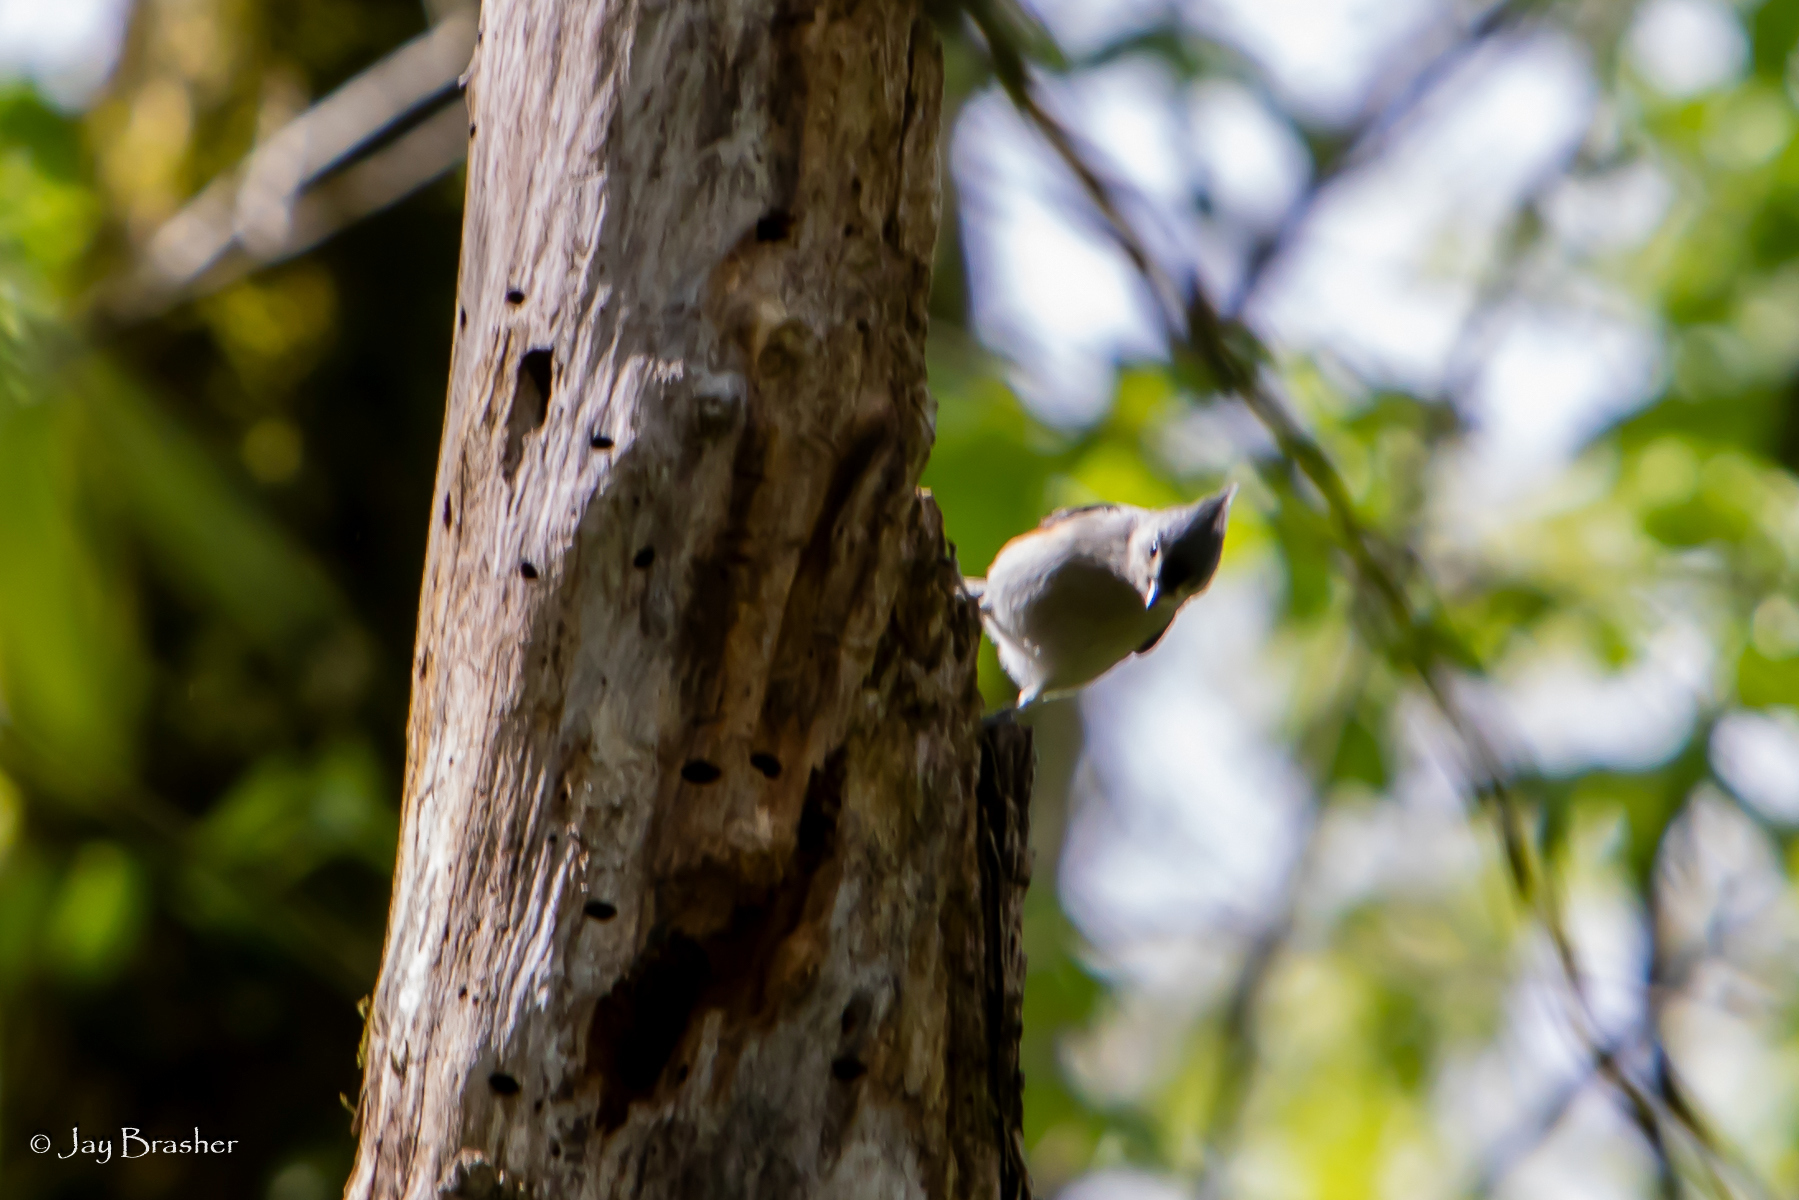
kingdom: Animalia
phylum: Chordata
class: Aves
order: Passeriformes
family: Paridae
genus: Baeolophus
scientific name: Baeolophus bicolor
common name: Tufted titmouse
